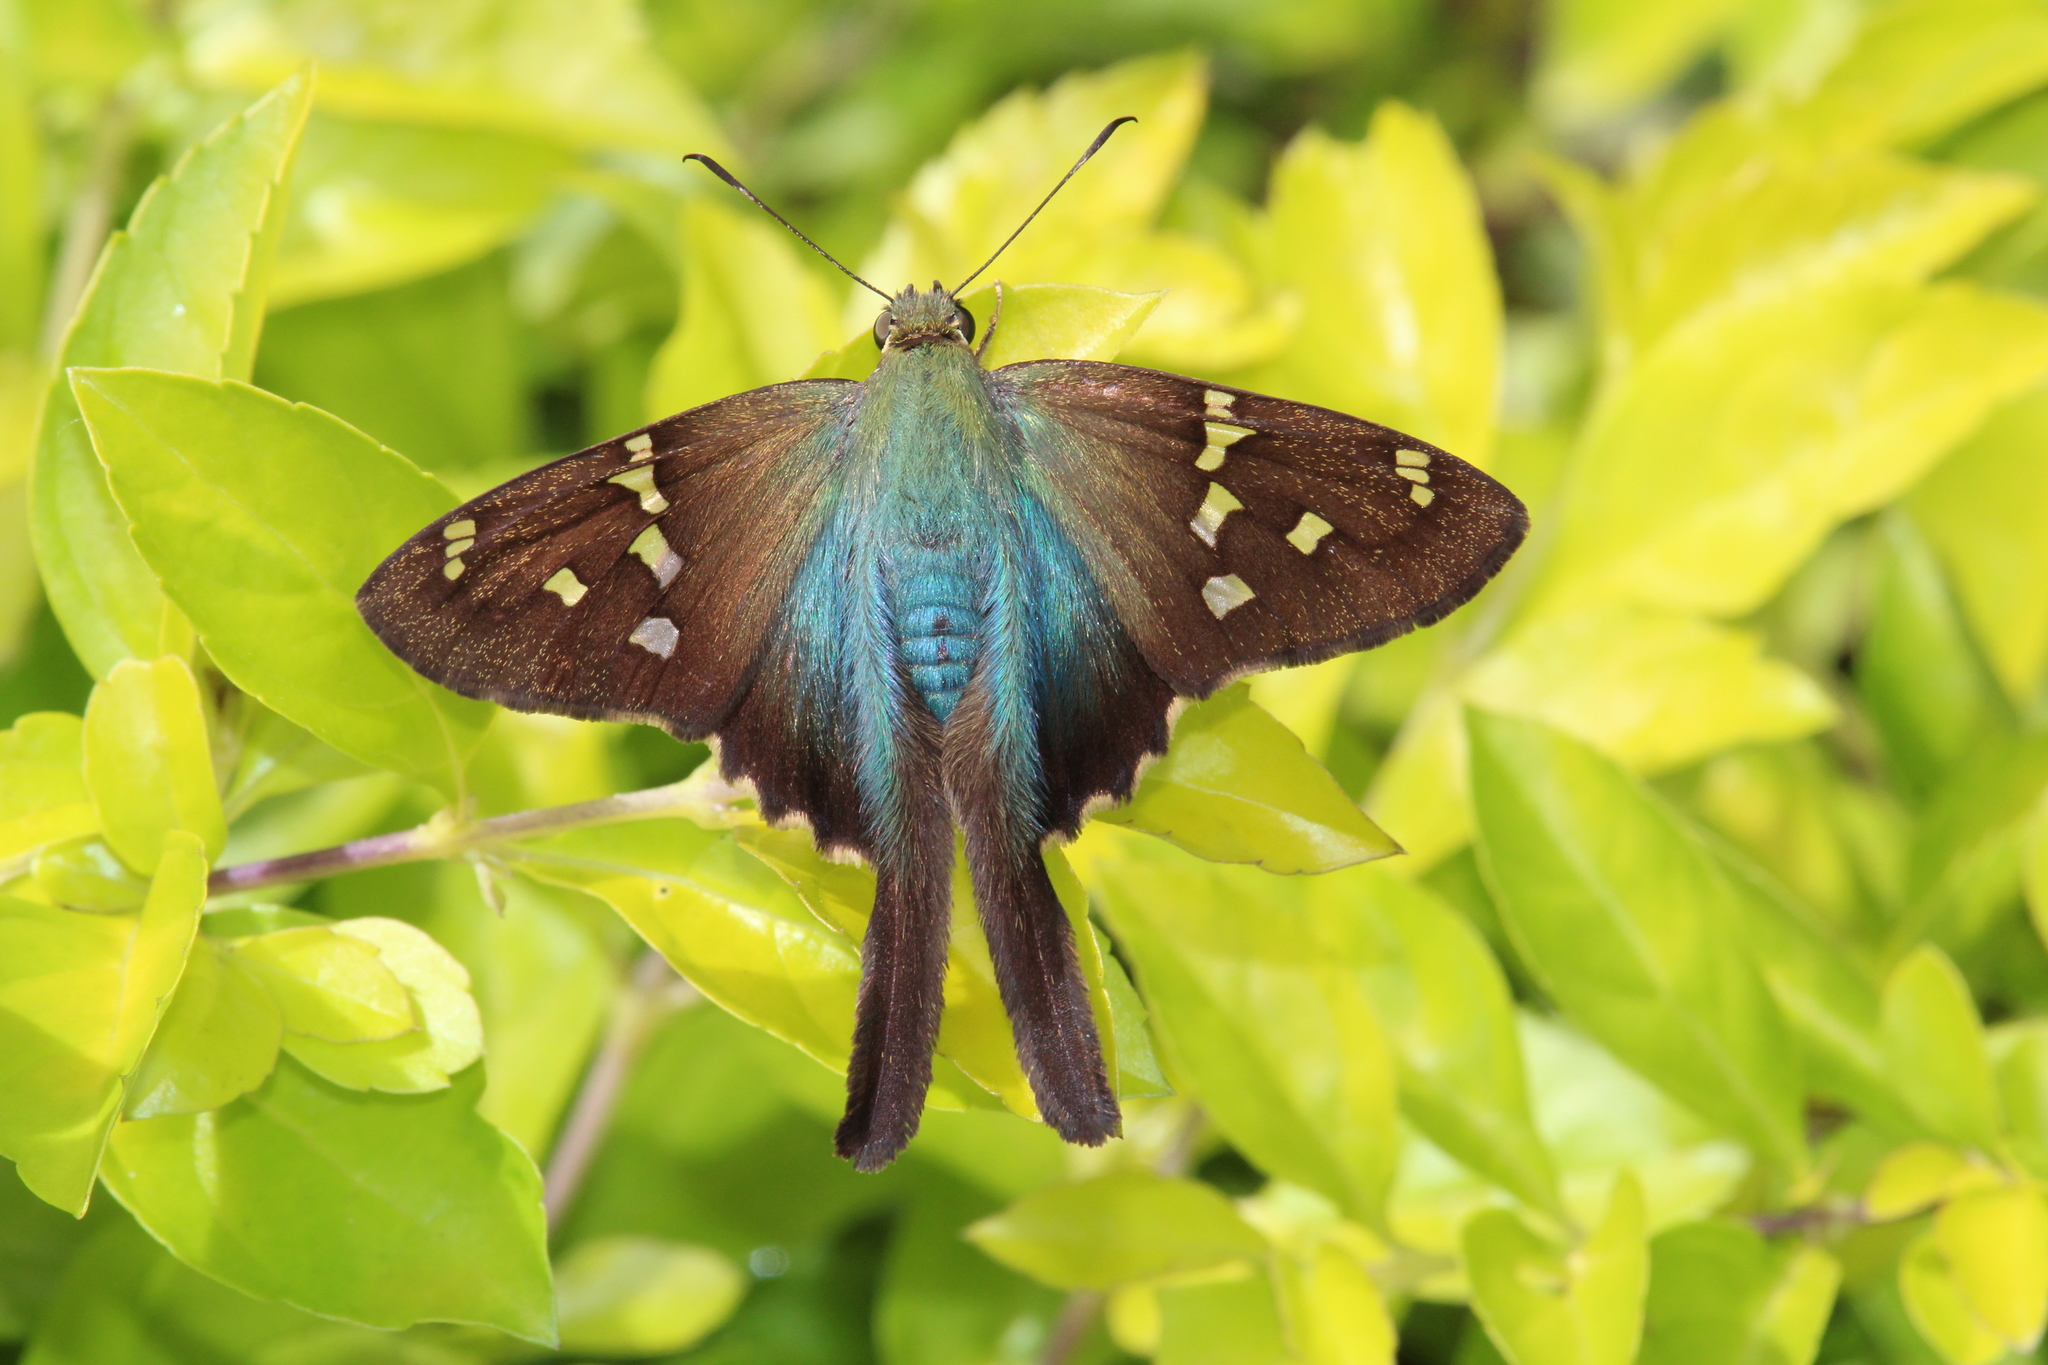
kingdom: Animalia
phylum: Arthropoda
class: Insecta
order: Lepidoptera
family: Hesperiidae
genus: Urbanus
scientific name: Urbanus proteus
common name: Long-tailed skipper
